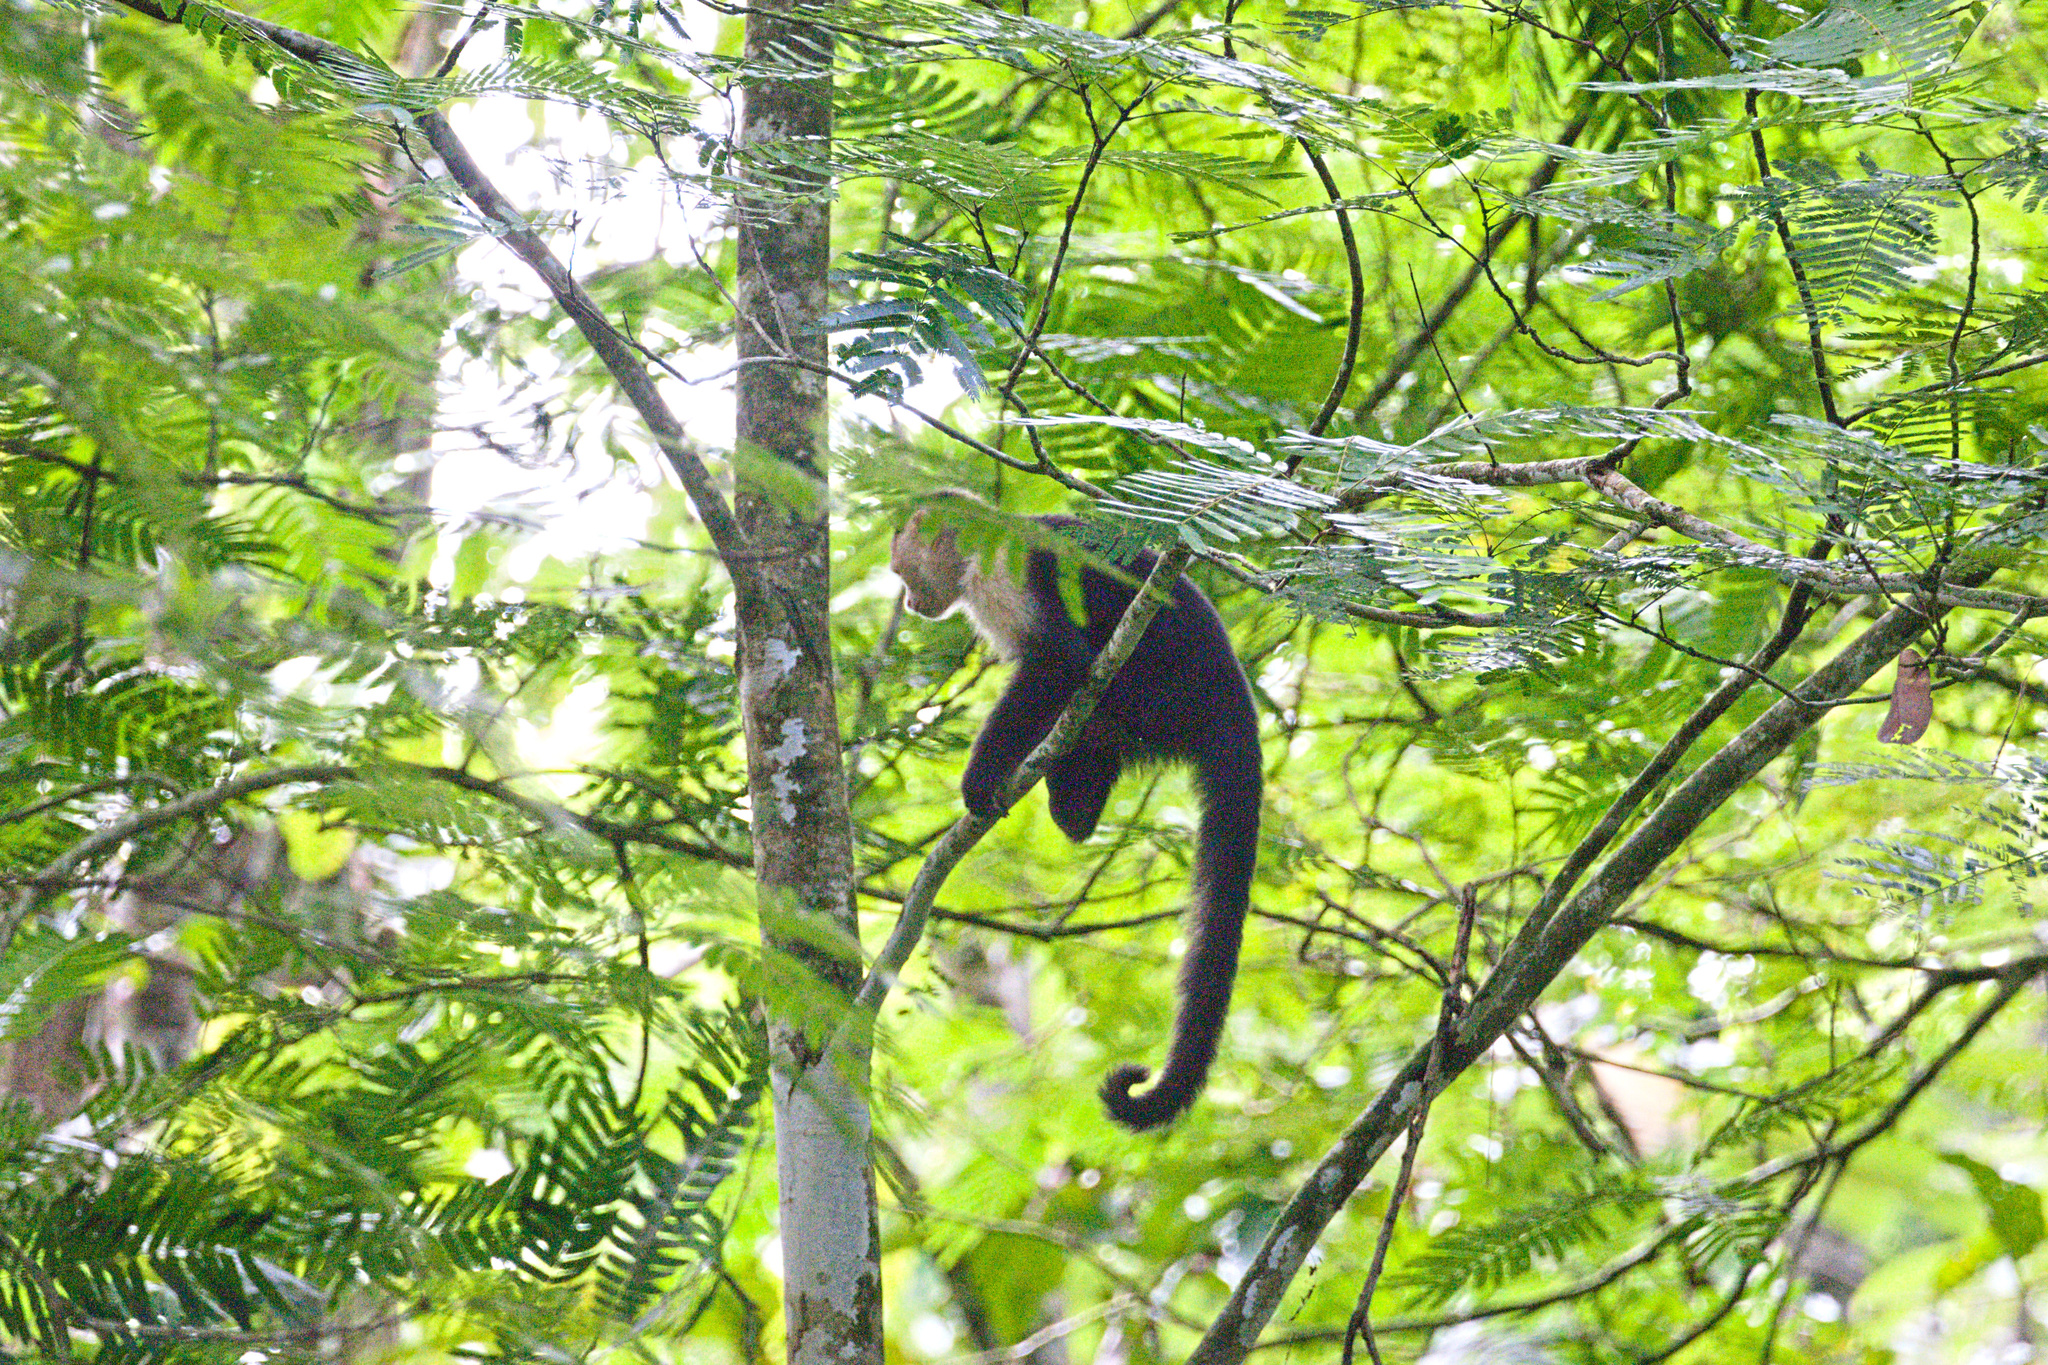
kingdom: Animalia
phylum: Chordata
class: Mammalia
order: Primates
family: Cebidae
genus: Cebus
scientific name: Cebus imitator
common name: Panamanian white-faced capuchin
